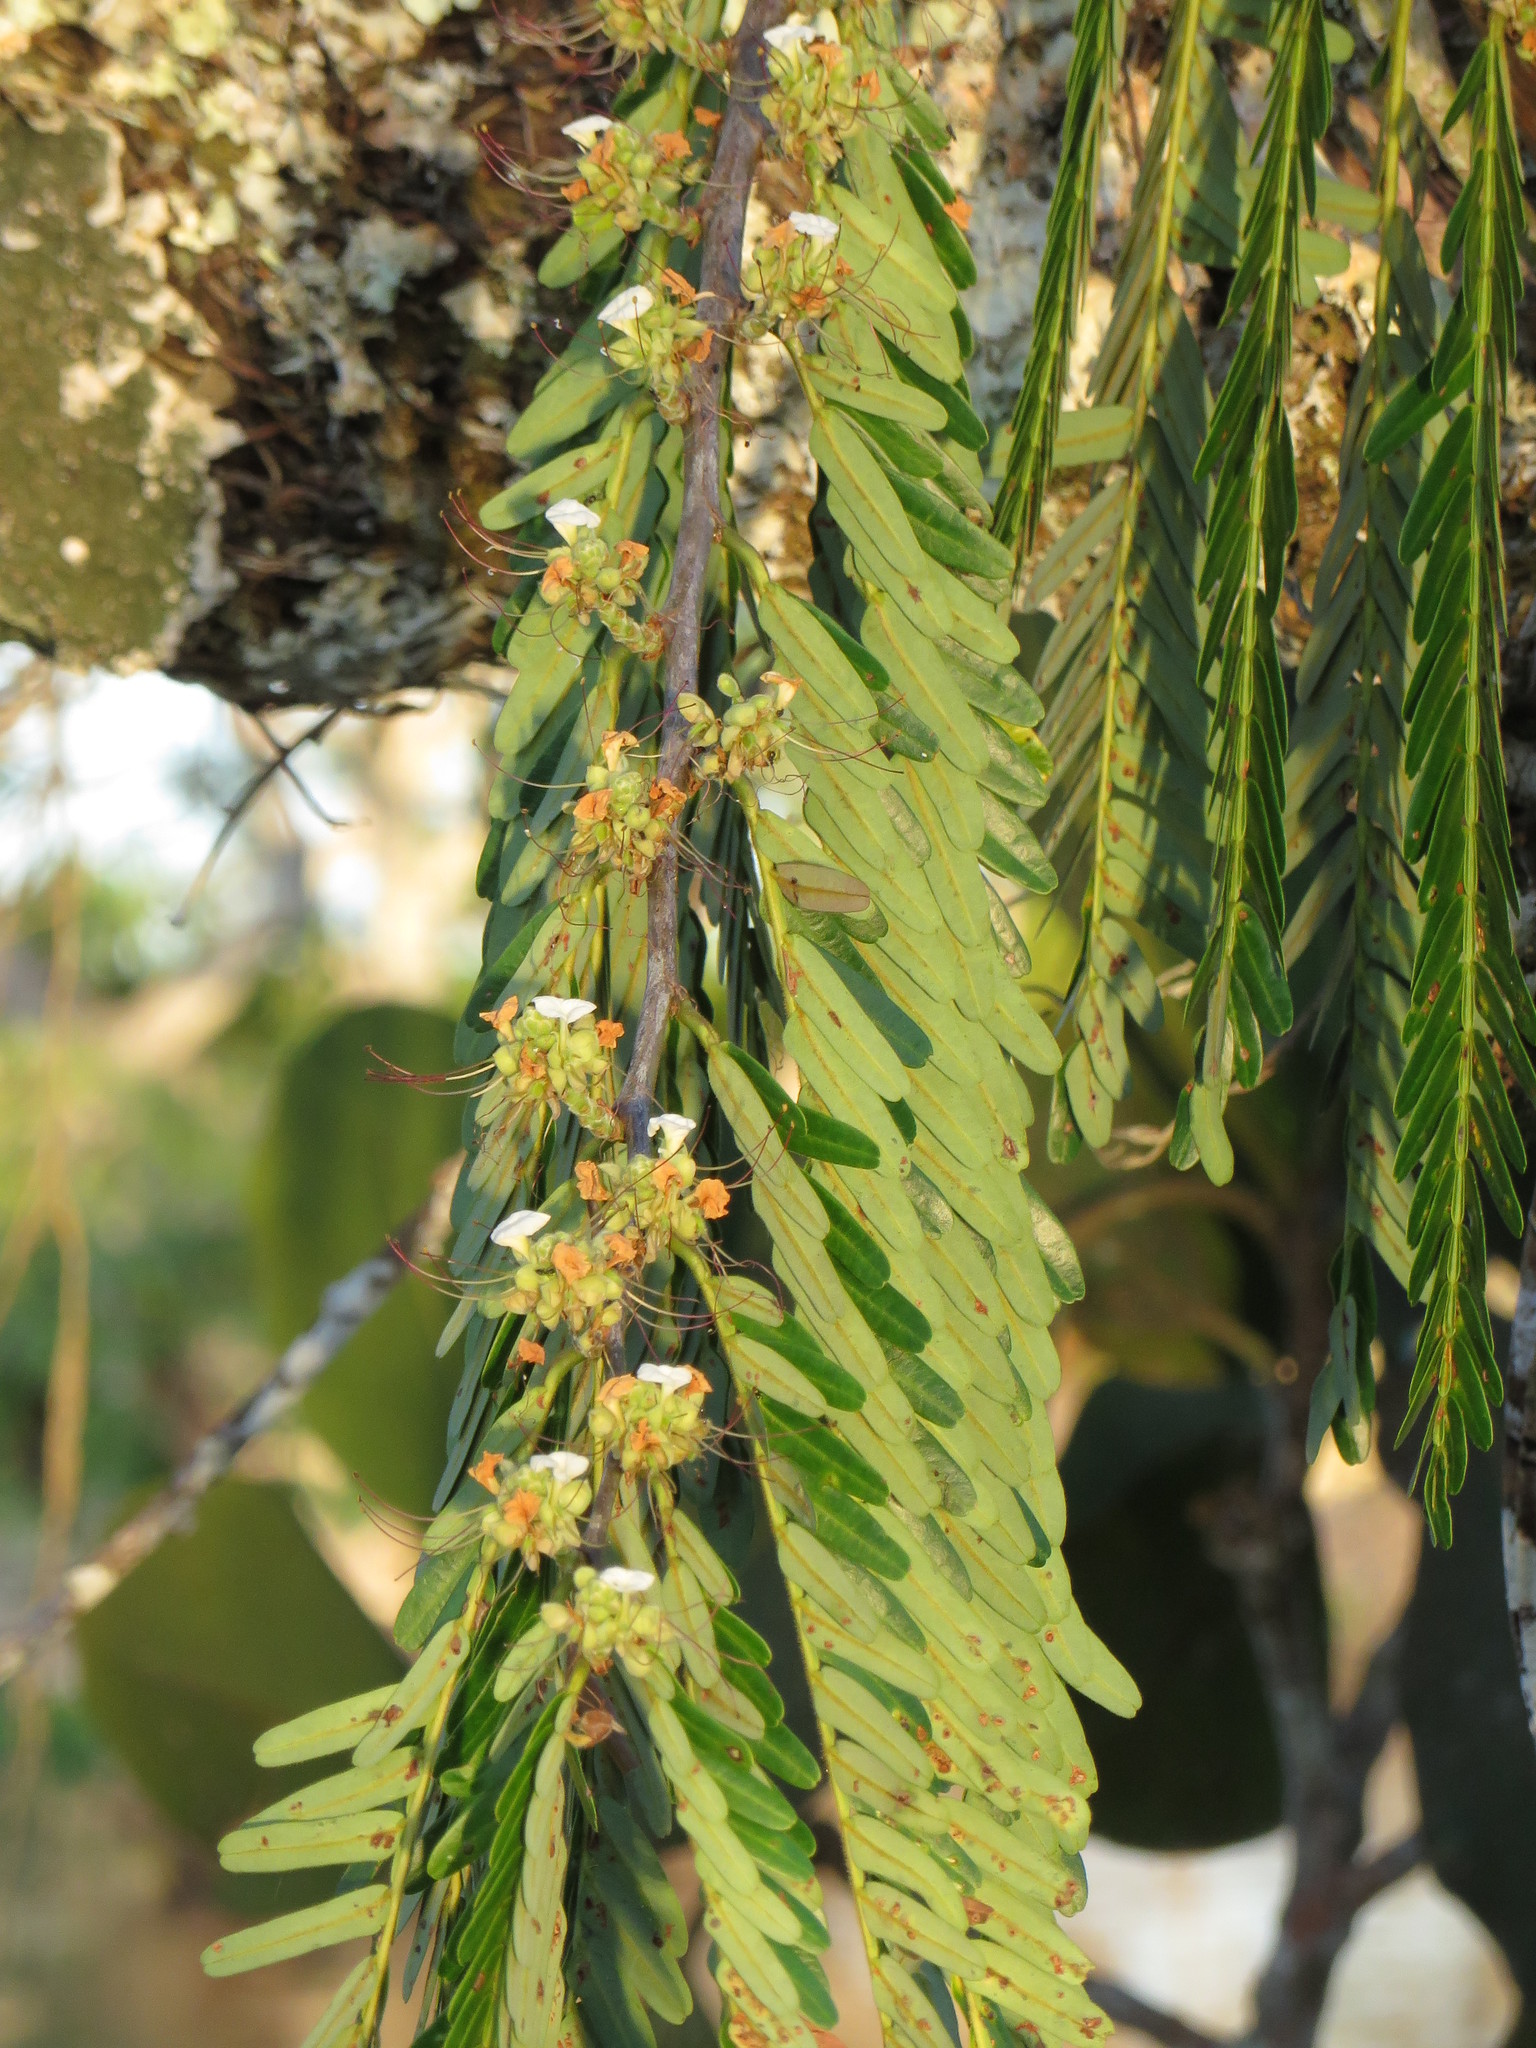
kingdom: Plantae
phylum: Tracheophyta
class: Magnoliopsida
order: Fabales
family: Fabaceae
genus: Macrolobium
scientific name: Macrolobium acaciifolium
